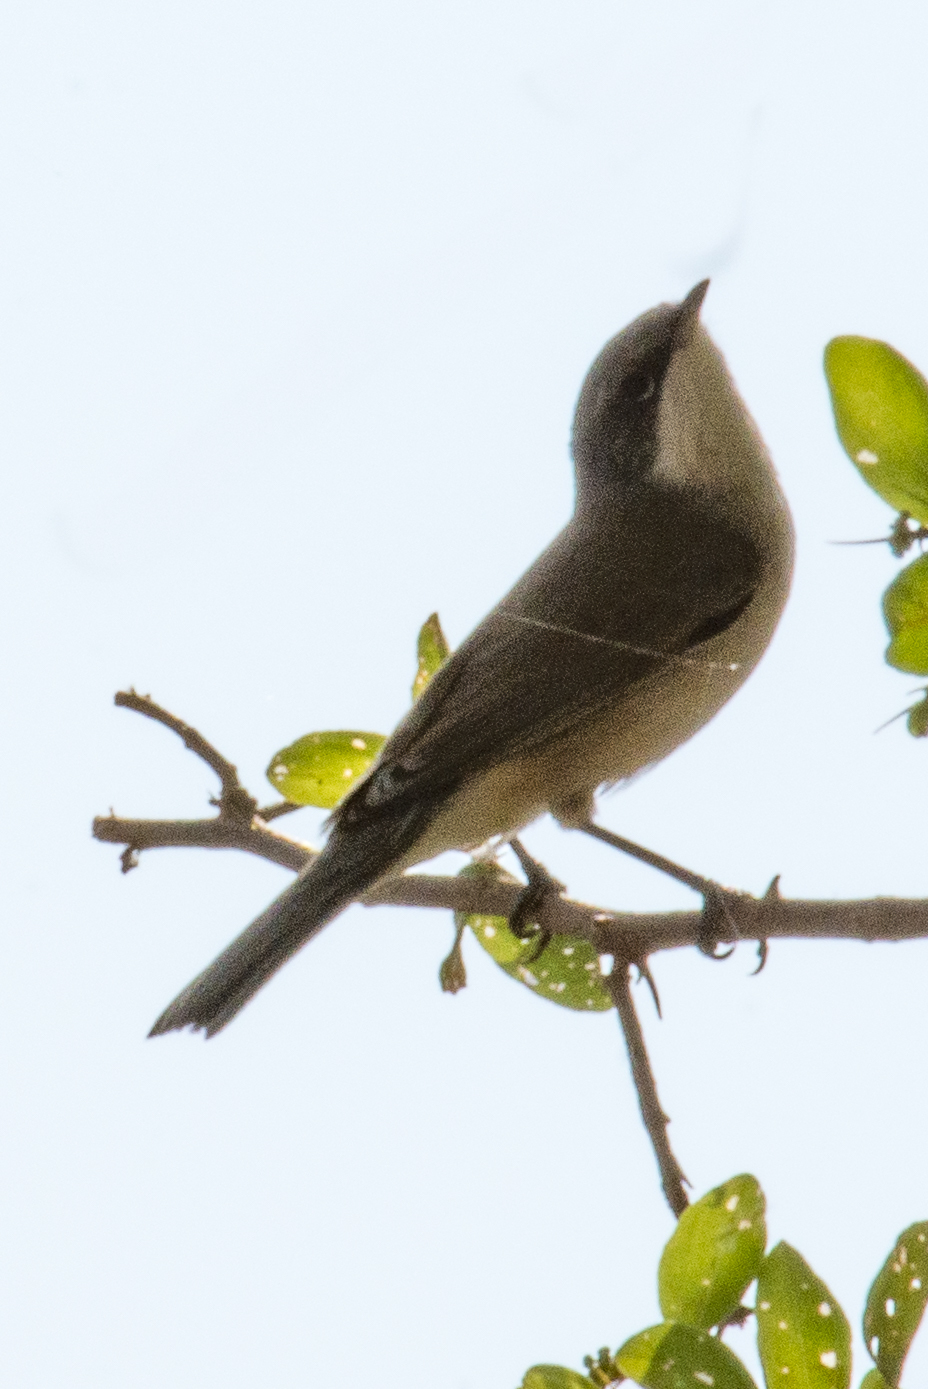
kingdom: Animalia
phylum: Chordata
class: Aves
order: Passeriformes
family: Sylviidae
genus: Sylvia
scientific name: Sylvia curruca
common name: Lesser whitethroat
